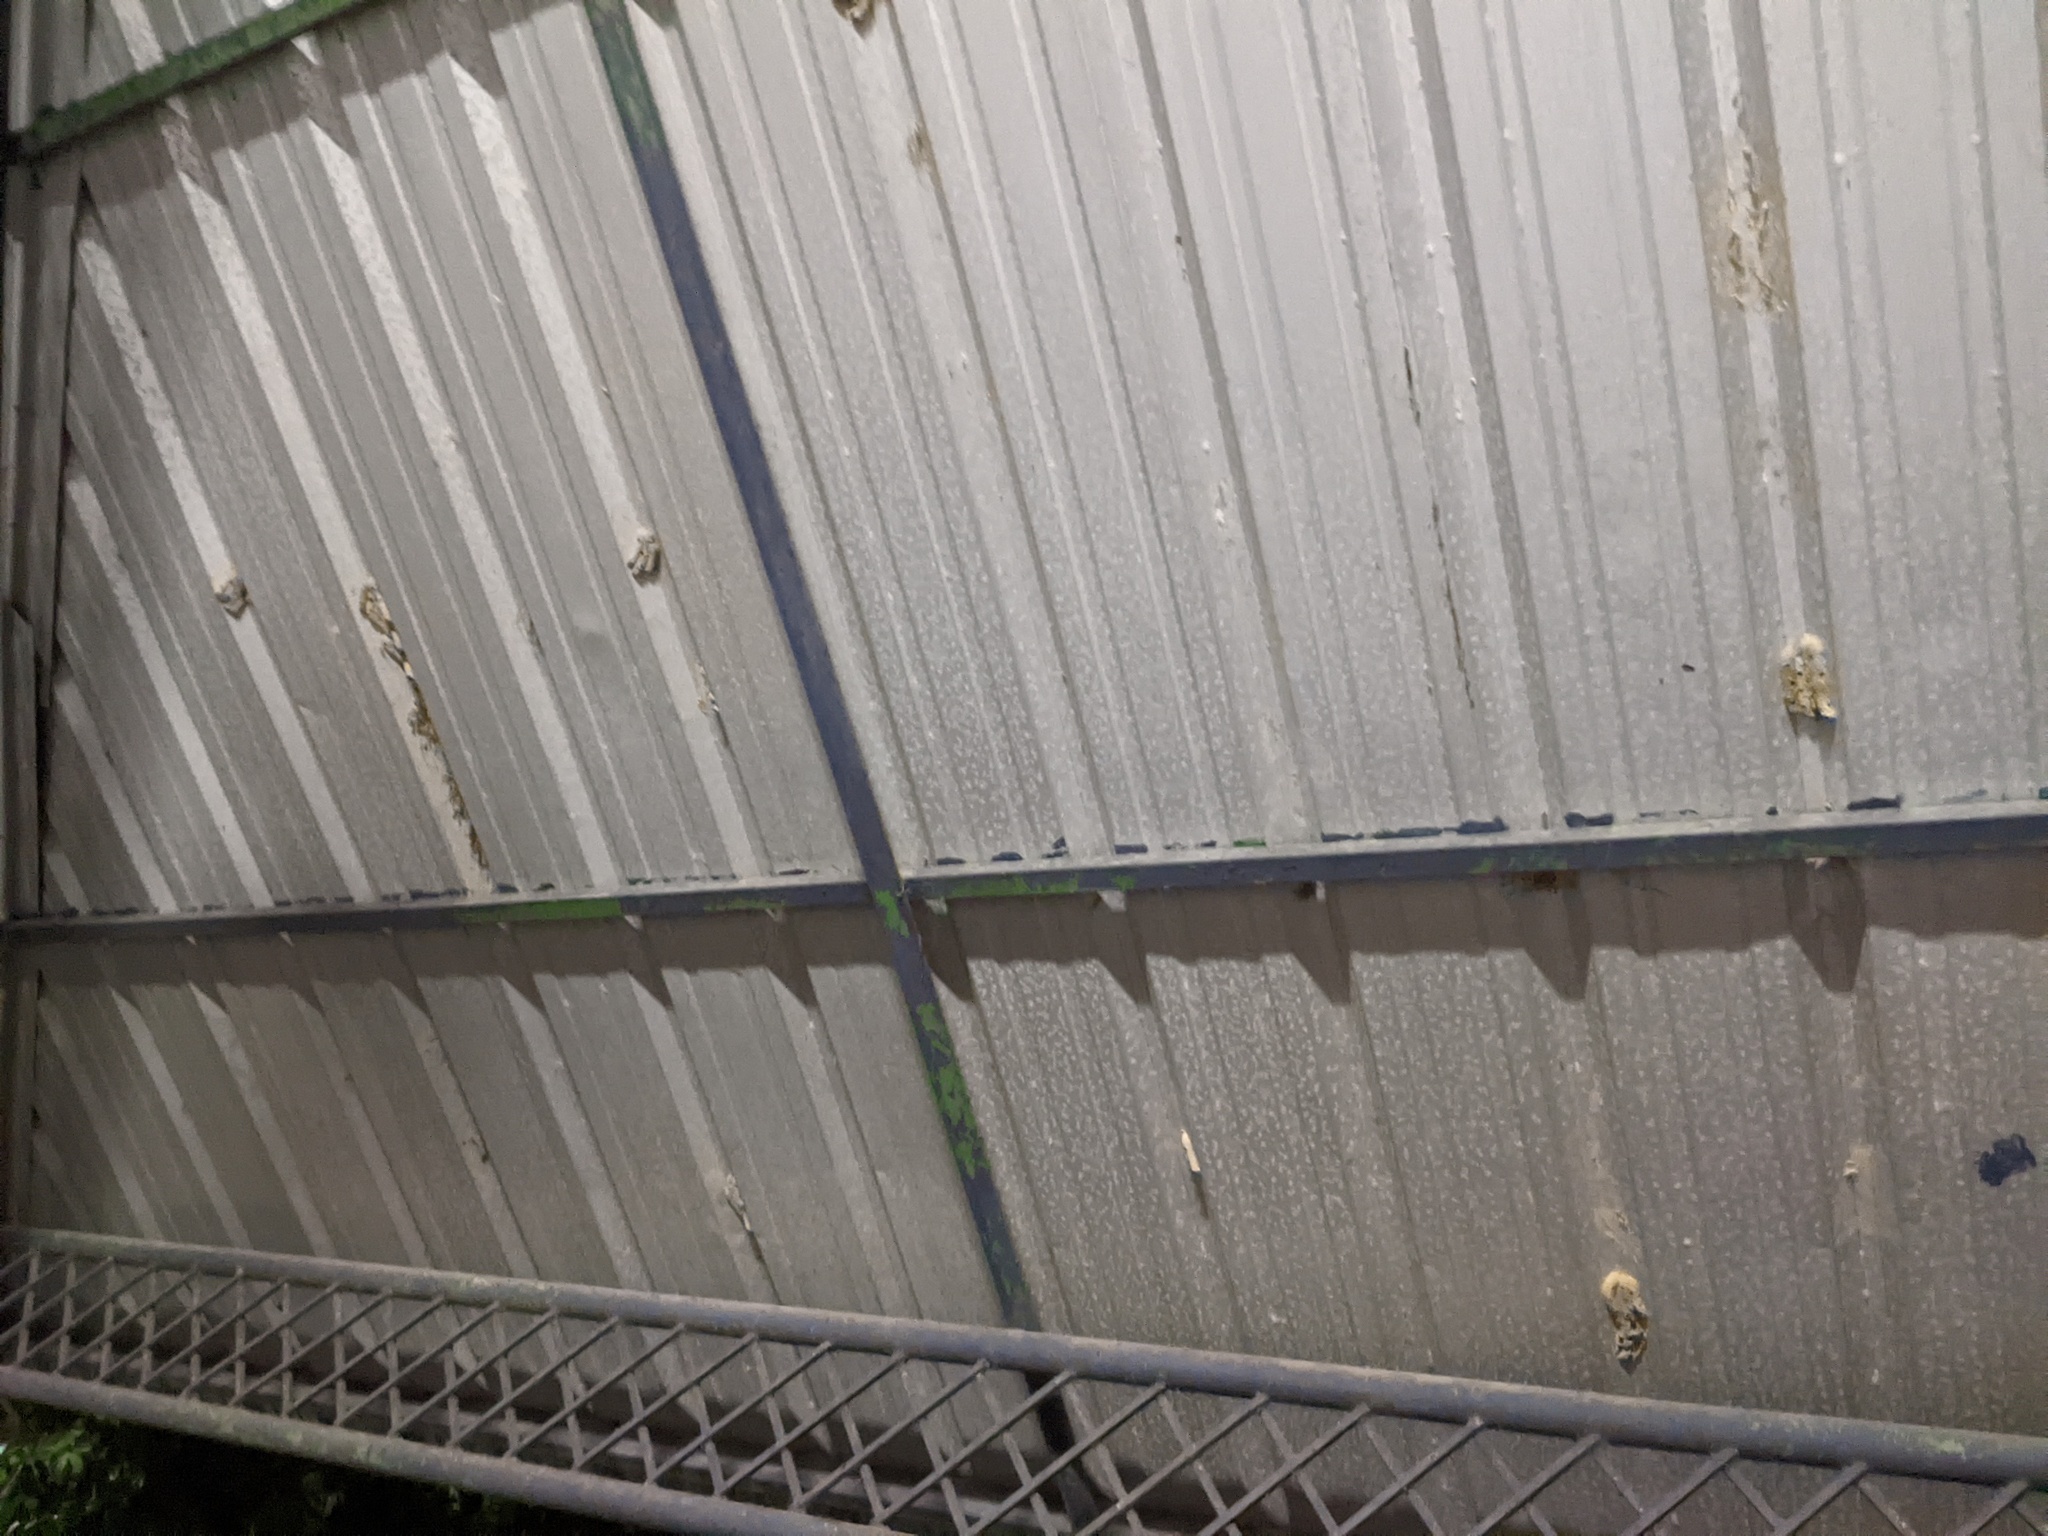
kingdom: Animalia
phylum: Arthropoda
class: Insecta
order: Hymenoptera
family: Crabronidae
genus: Trypoxylon
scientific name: Trypoxylon mexicanum
